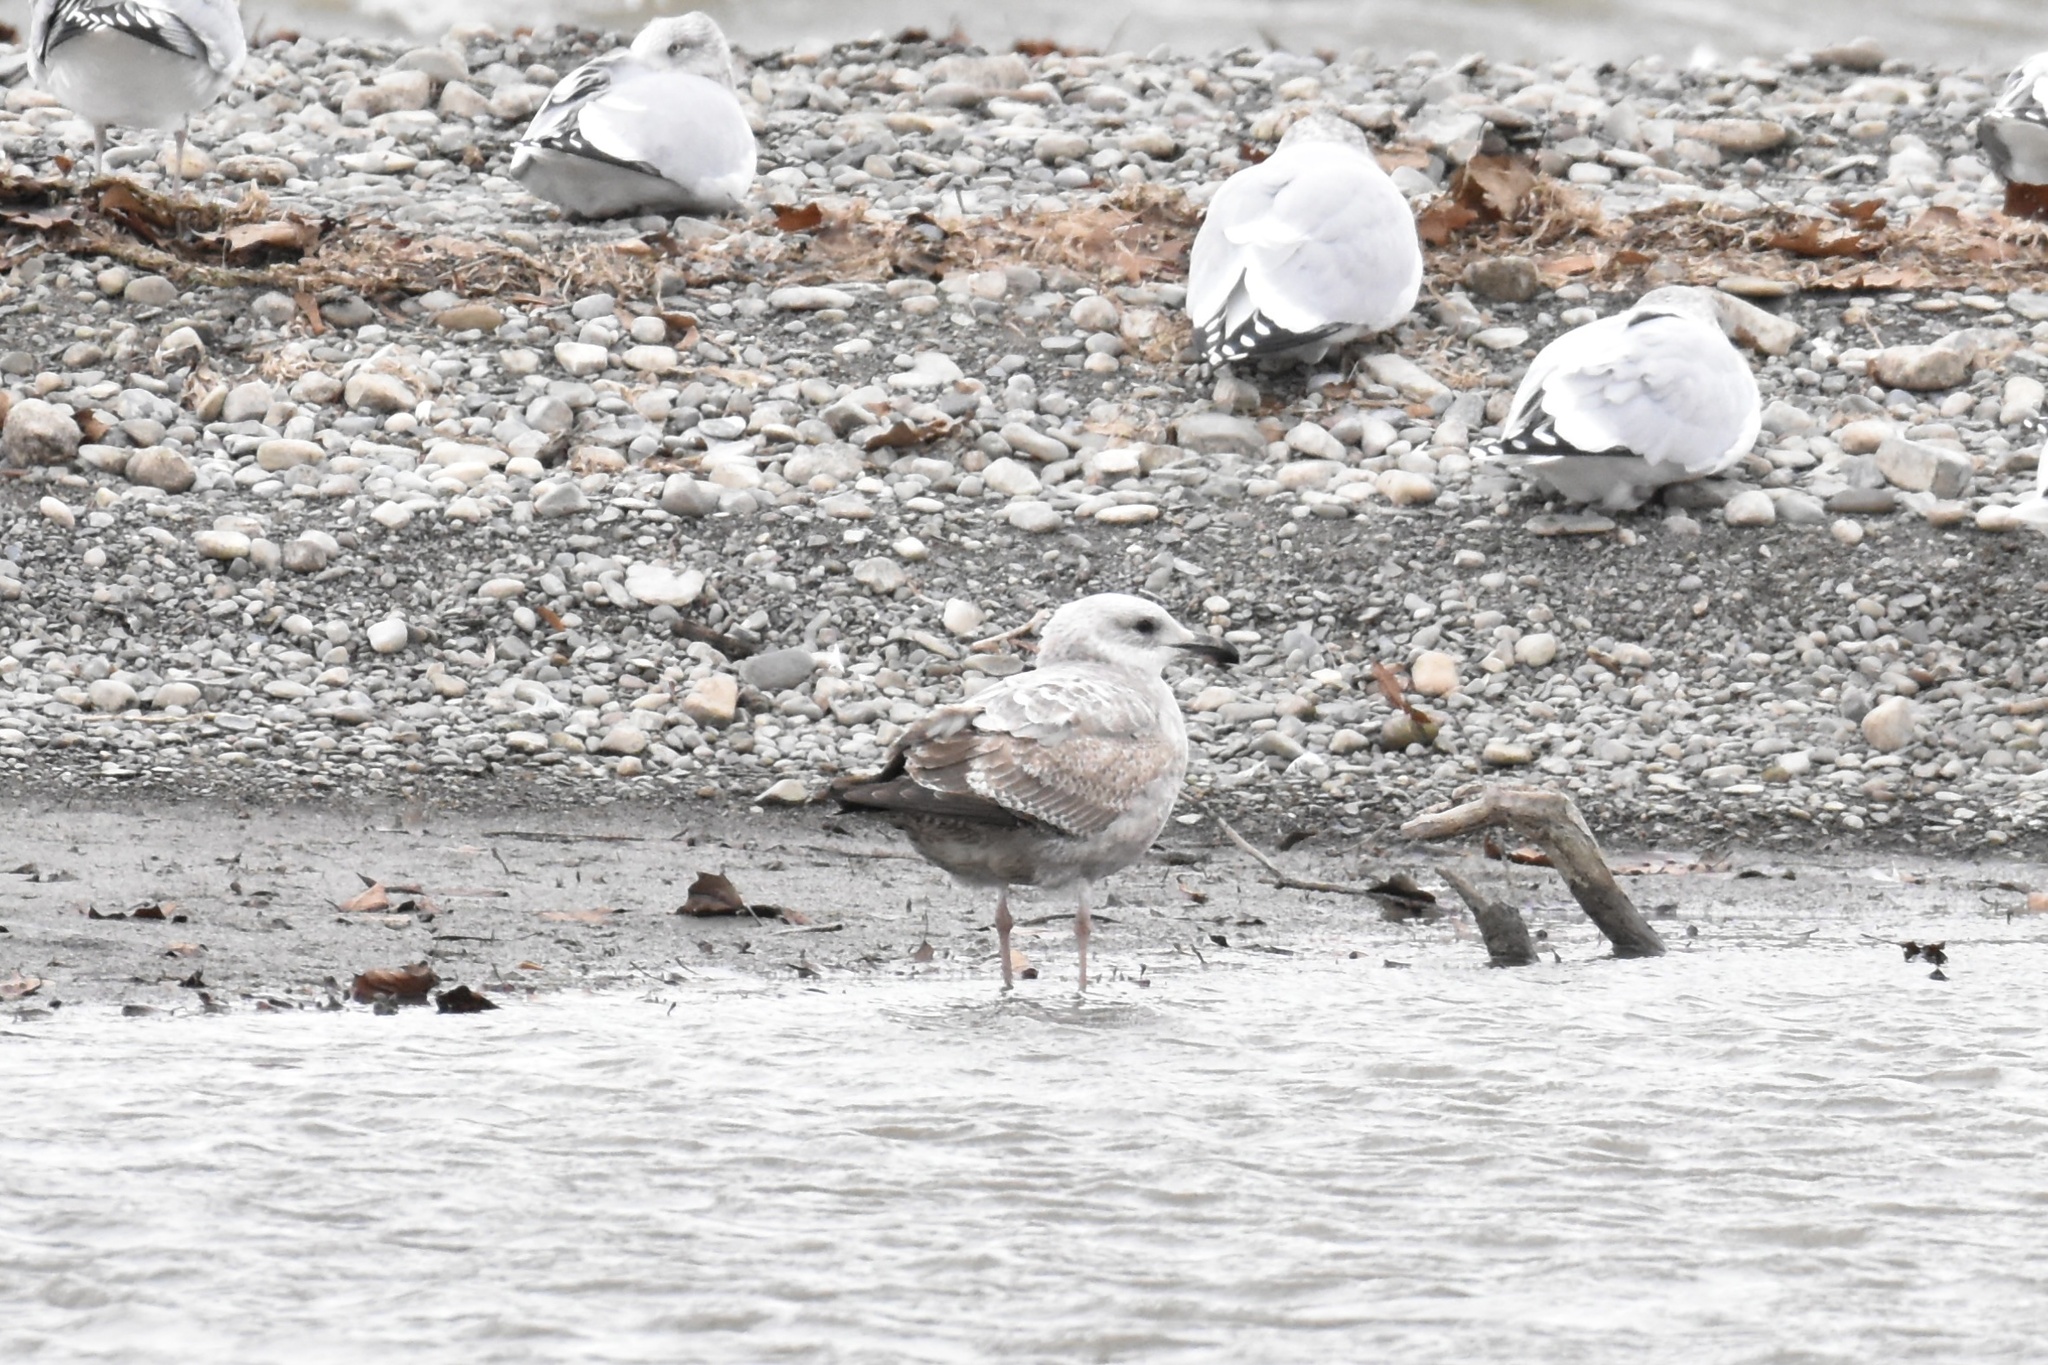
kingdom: Animalia
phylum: Chordata
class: Aves
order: Charadriiformes
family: Laridae
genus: Larus
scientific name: Larus argentatus
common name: Herring gull
